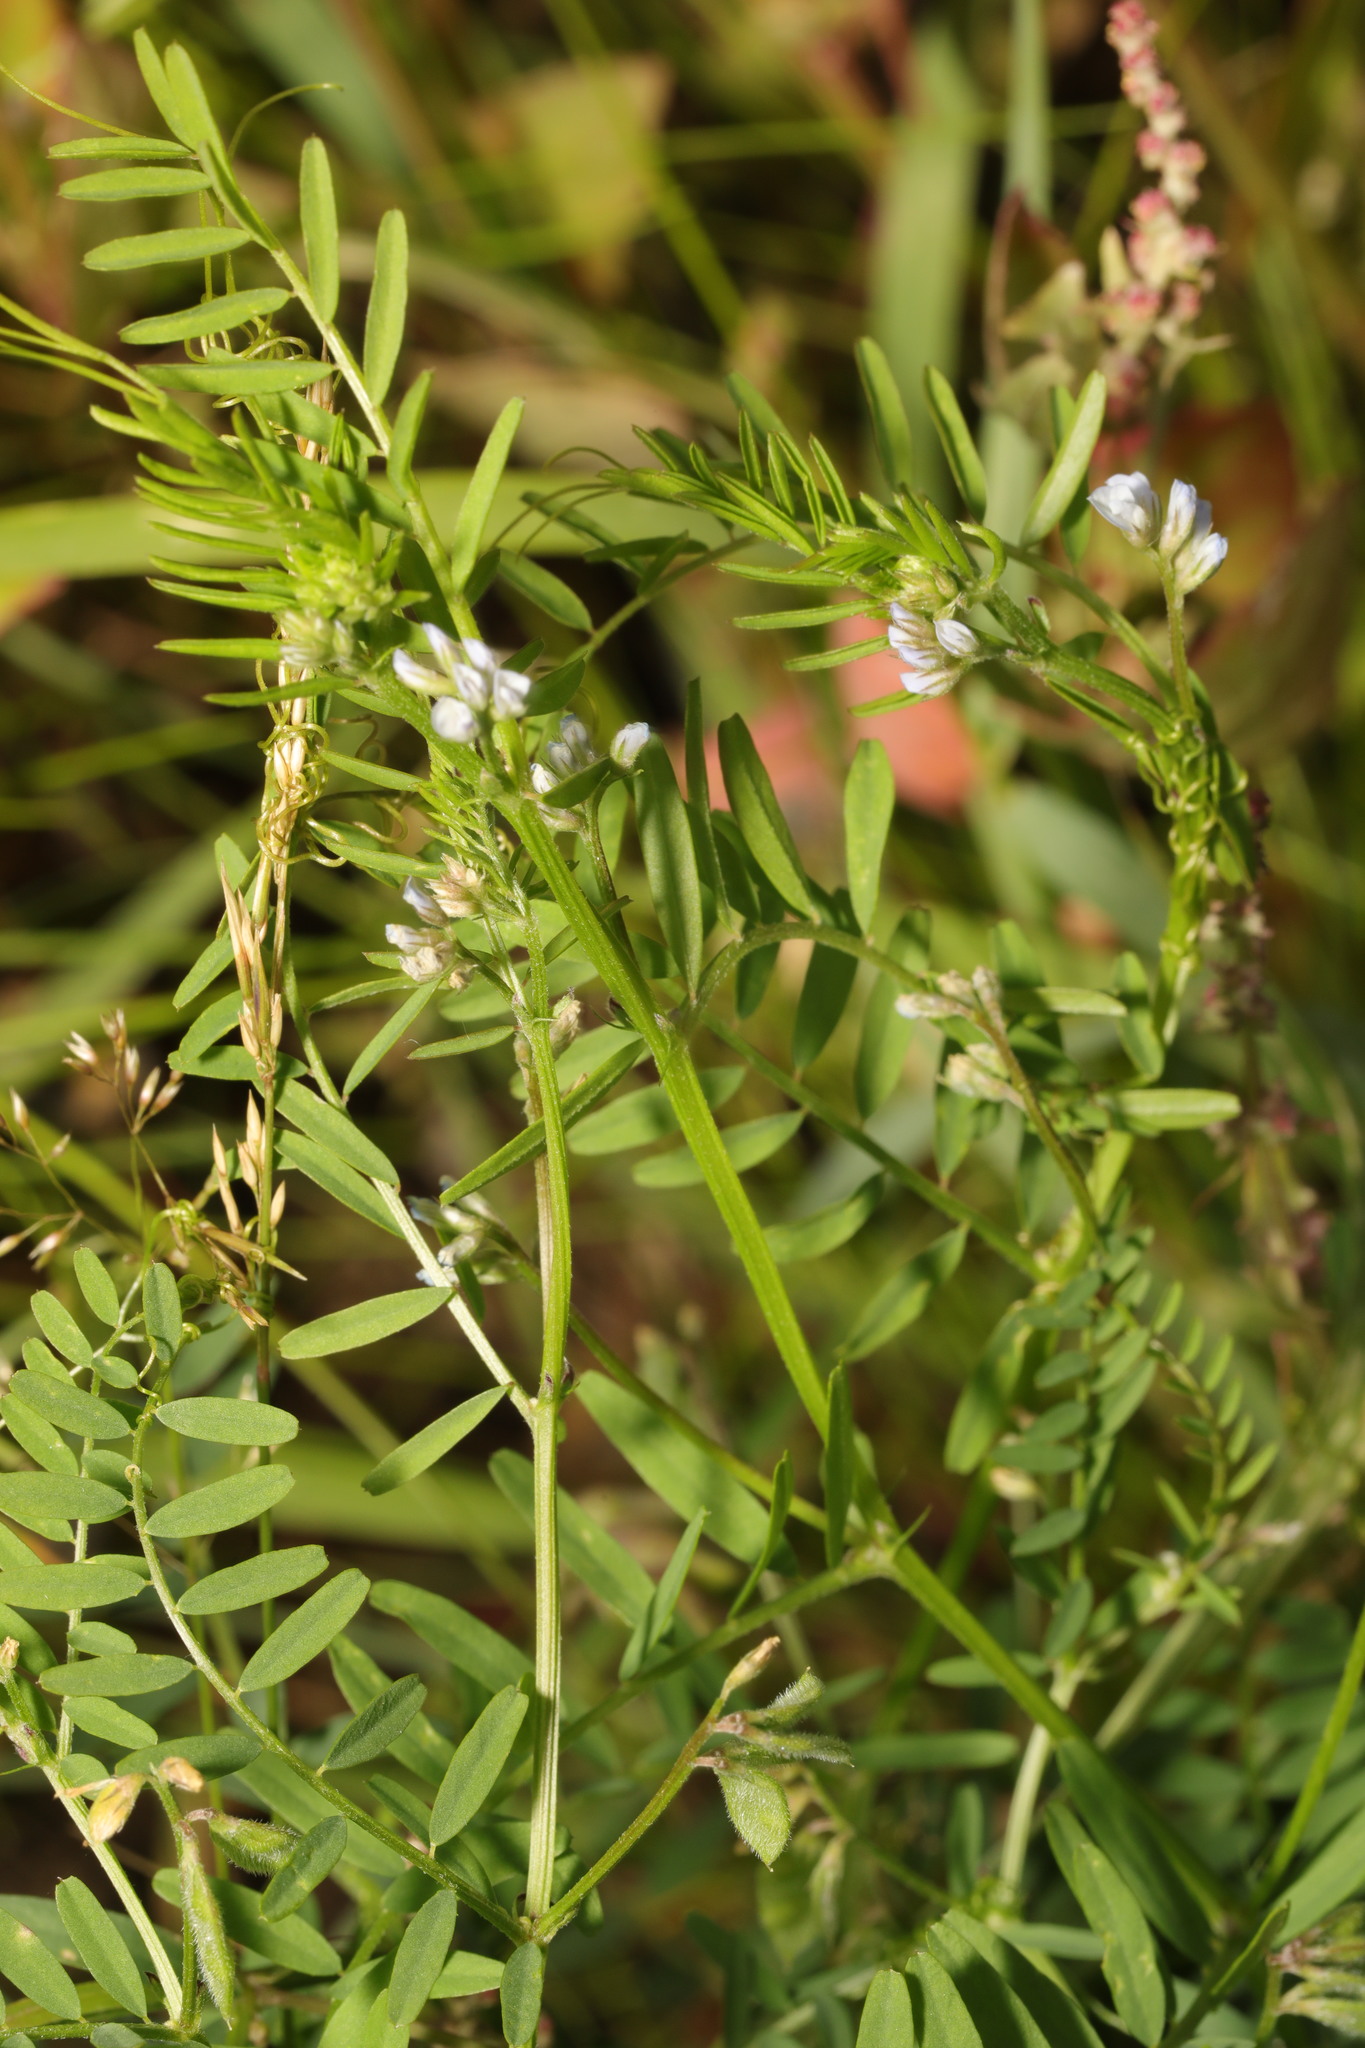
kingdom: Plantae
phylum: Tracheophyta
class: Magnoliopsida
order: Fabales
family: Fabaceae
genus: Vicia
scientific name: Vicia hirsuta
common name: Tiny vetch
